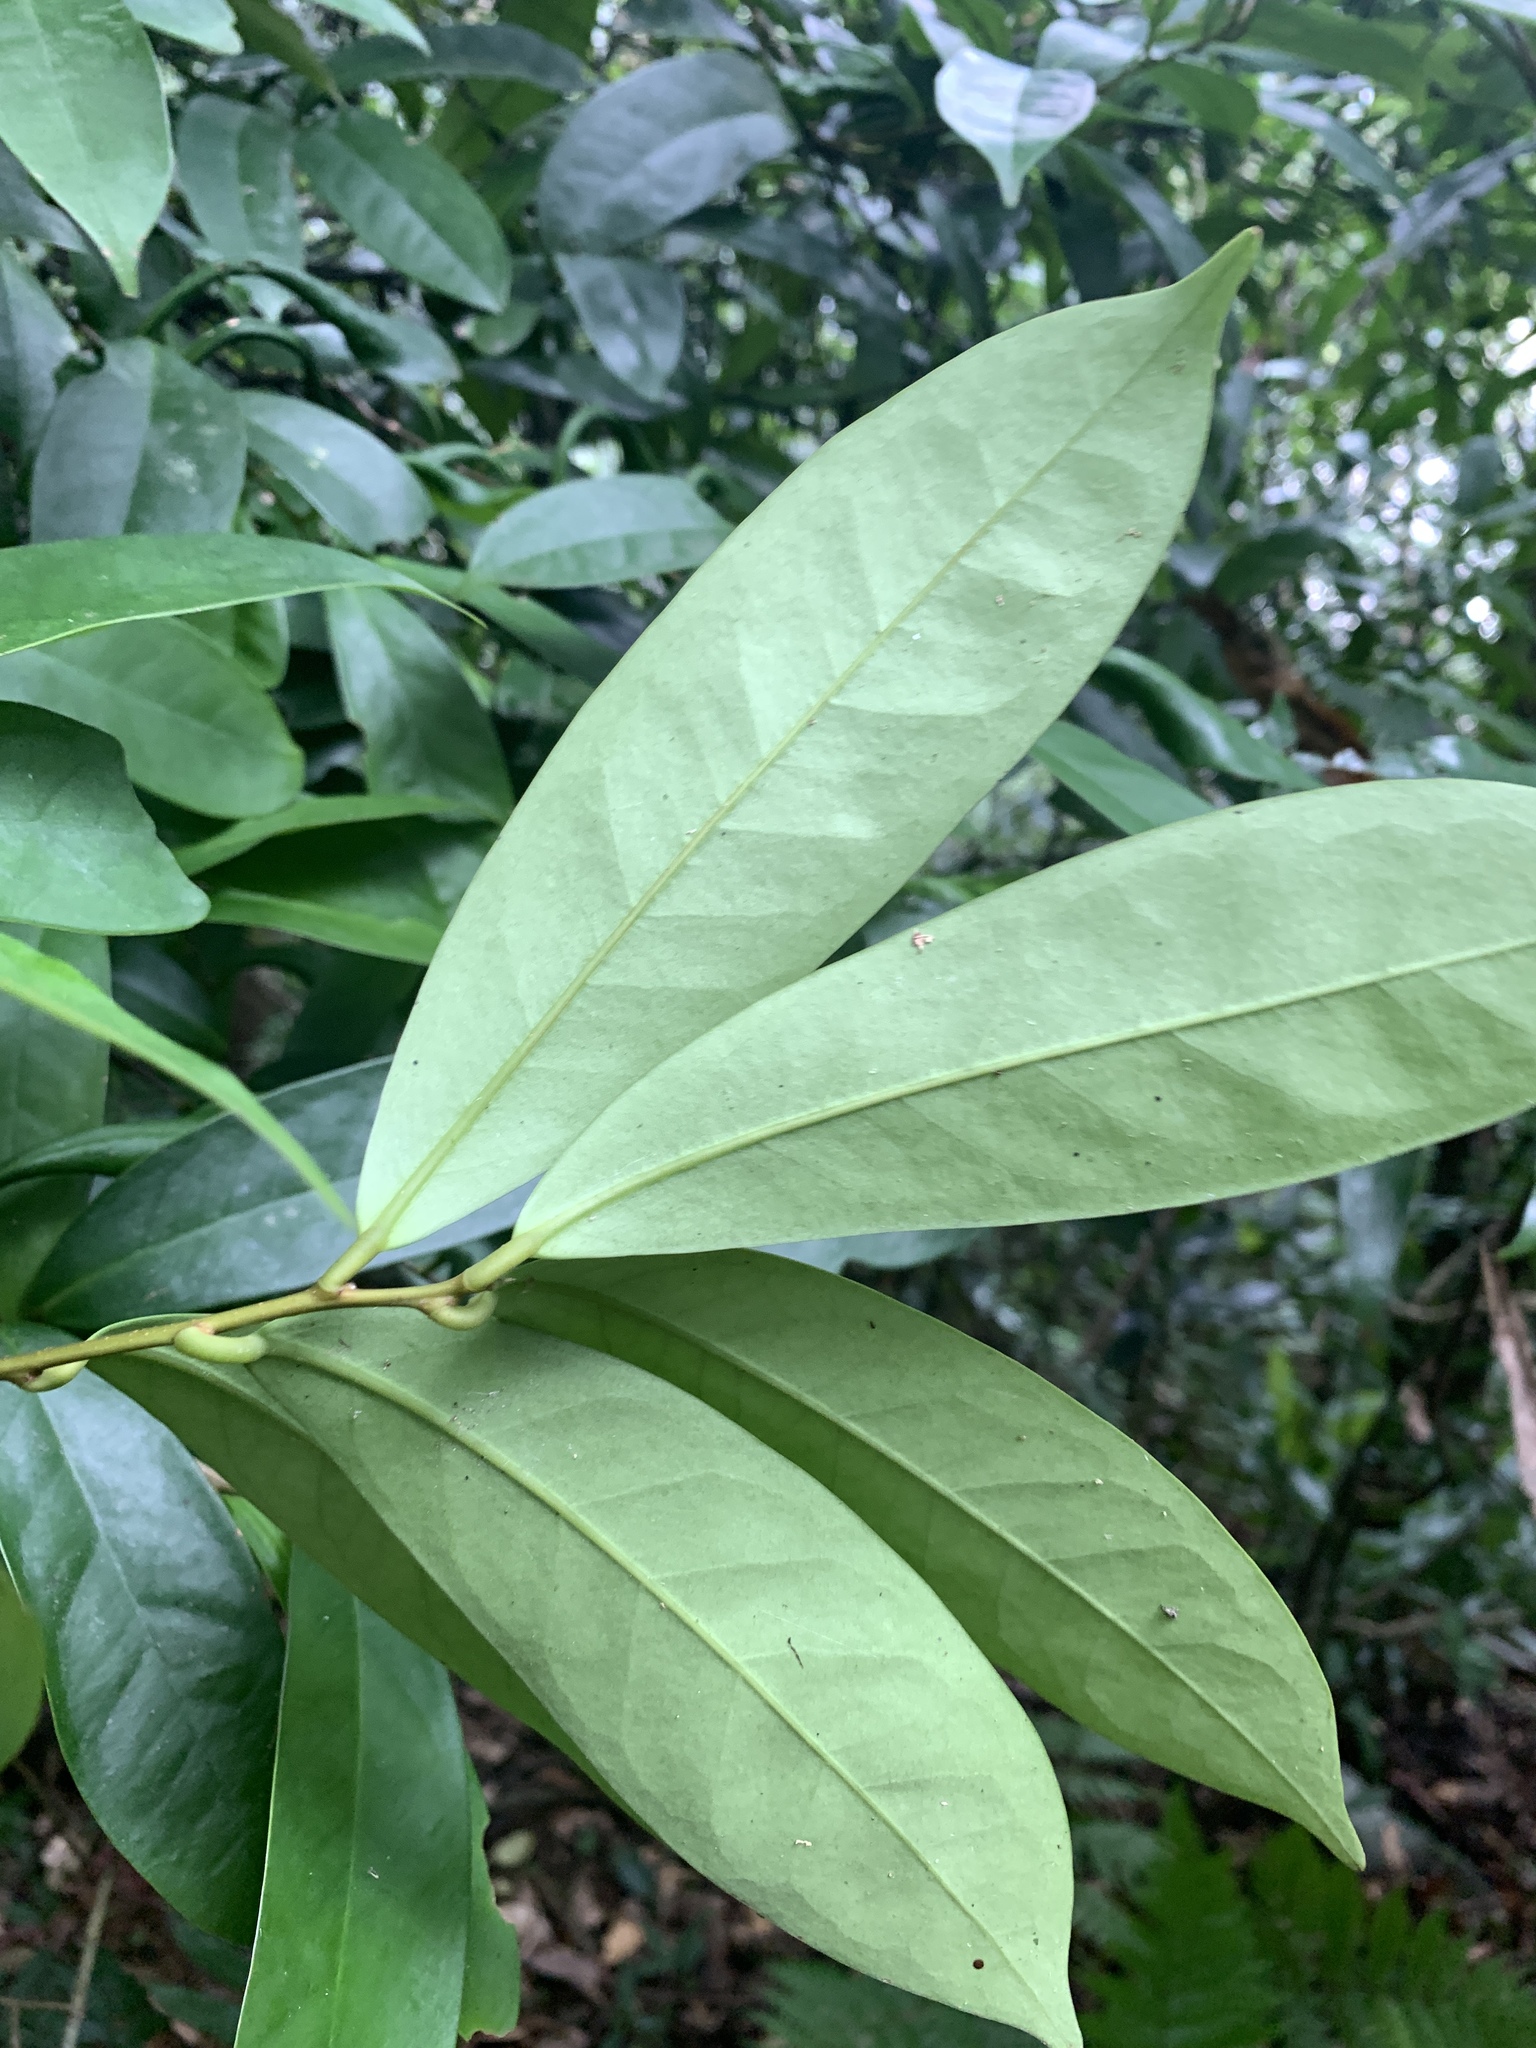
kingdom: Plantae
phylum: Tracheophyta
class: Magnoliopsida
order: Aquifoliales
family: Aquifoliaceae
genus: Ilex
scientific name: Ilex cochinchinensis
